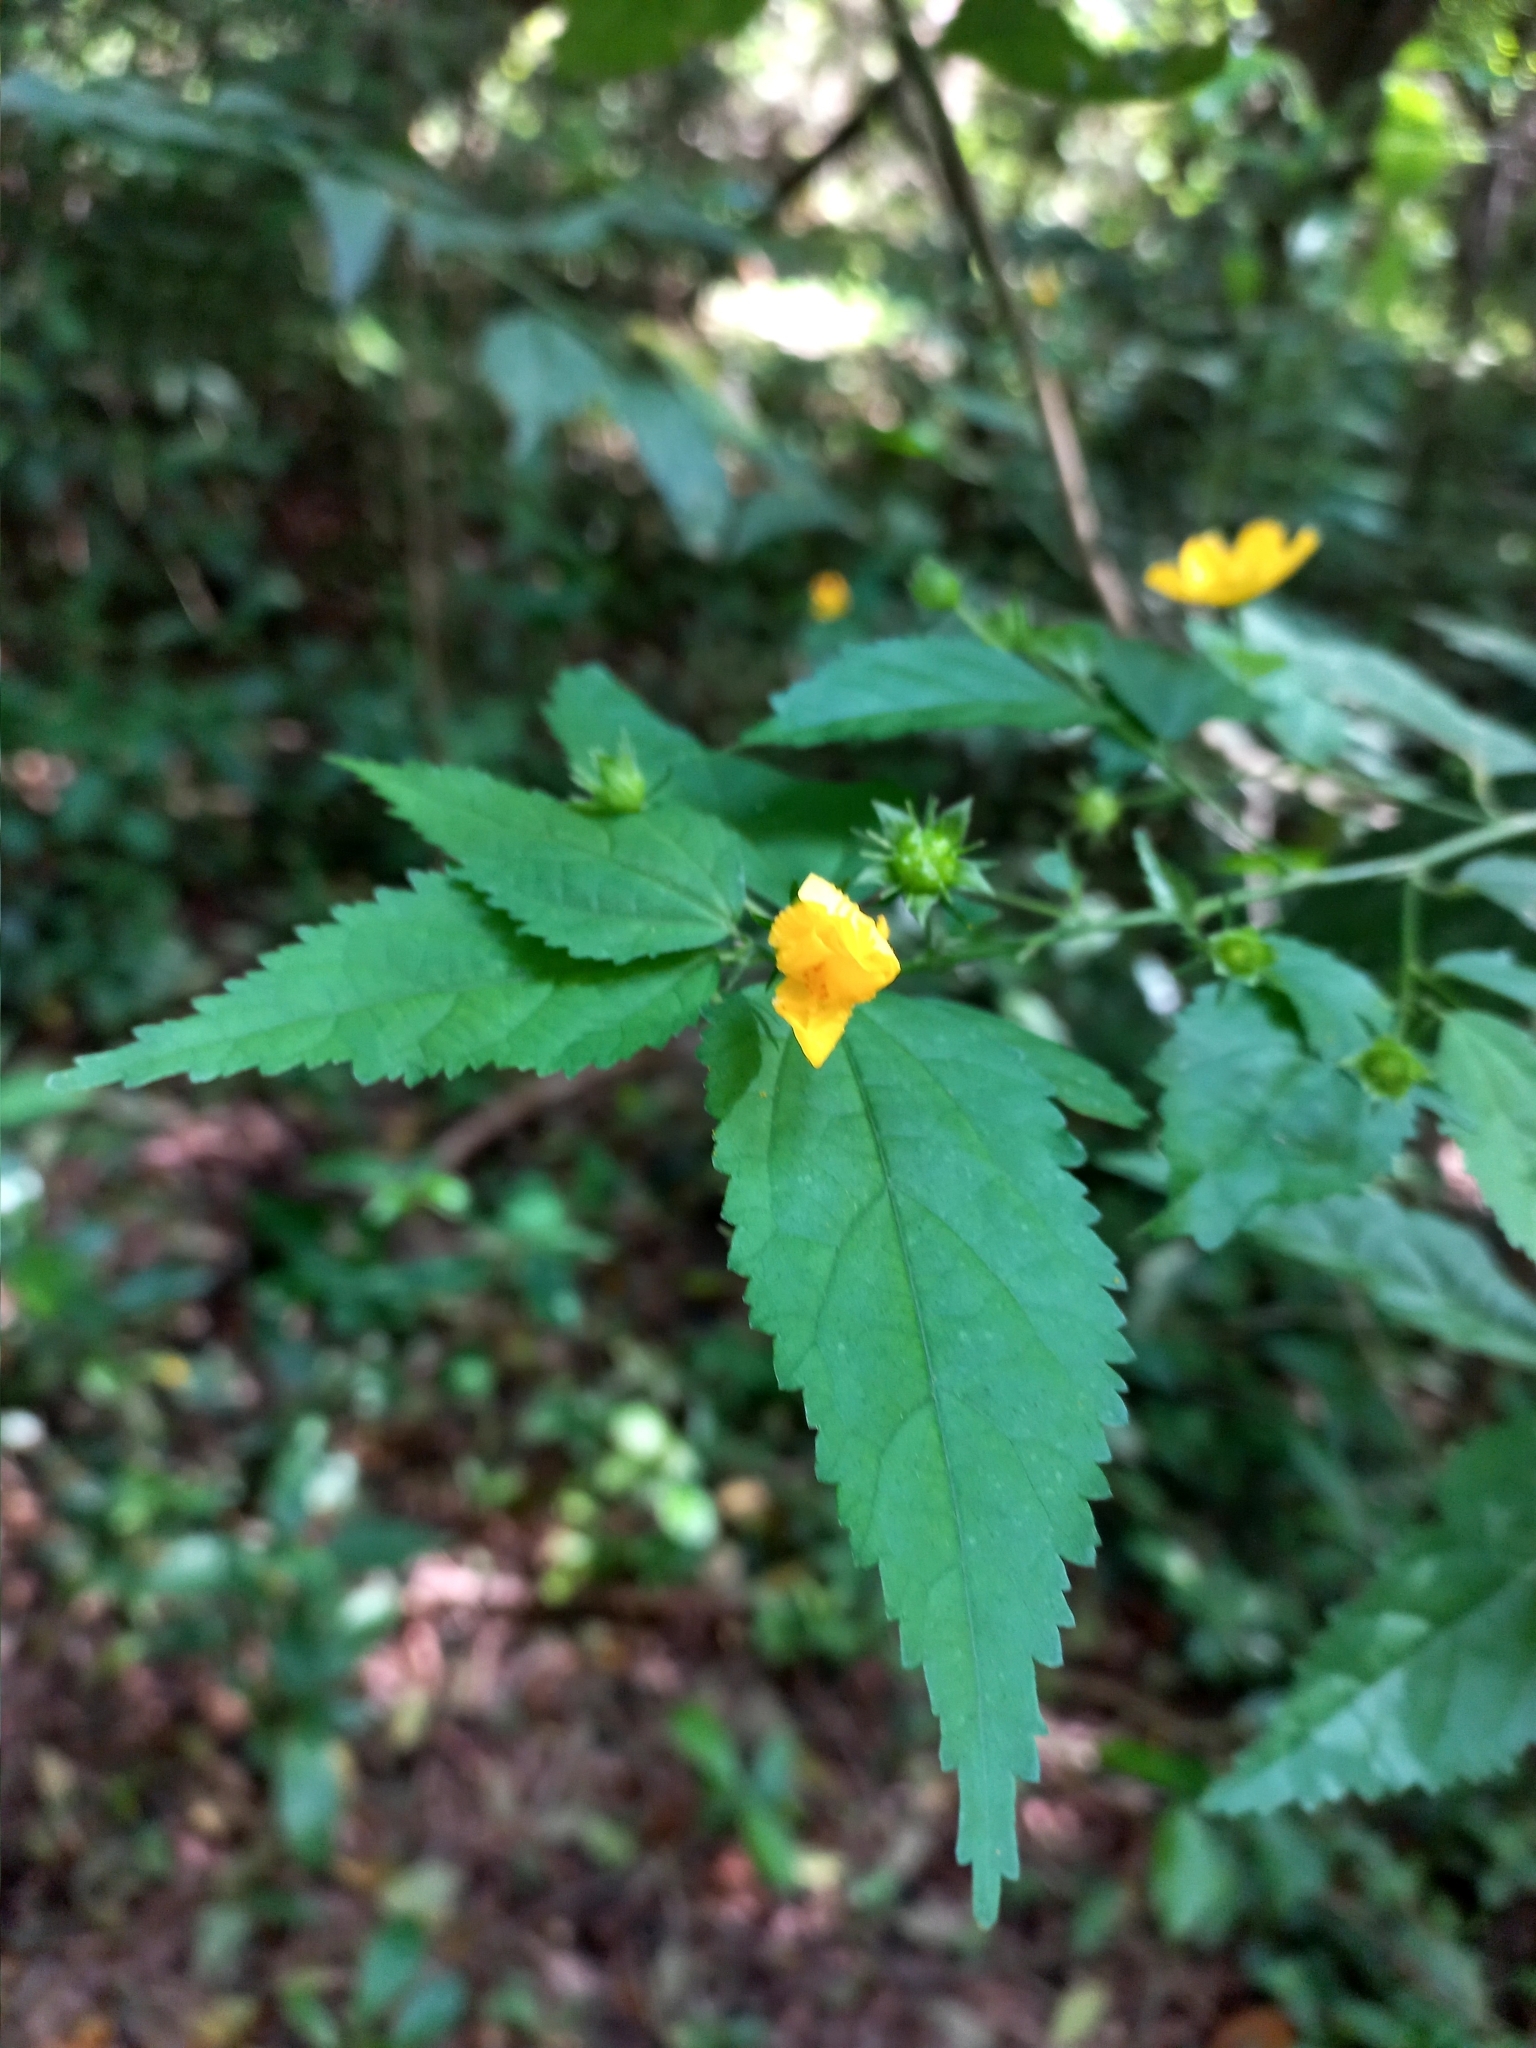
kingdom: Plantae
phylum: Tracheophyta
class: Magnoliopsida
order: Malvales
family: Malvaceae
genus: Pavonia
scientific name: Pavonia sepium
